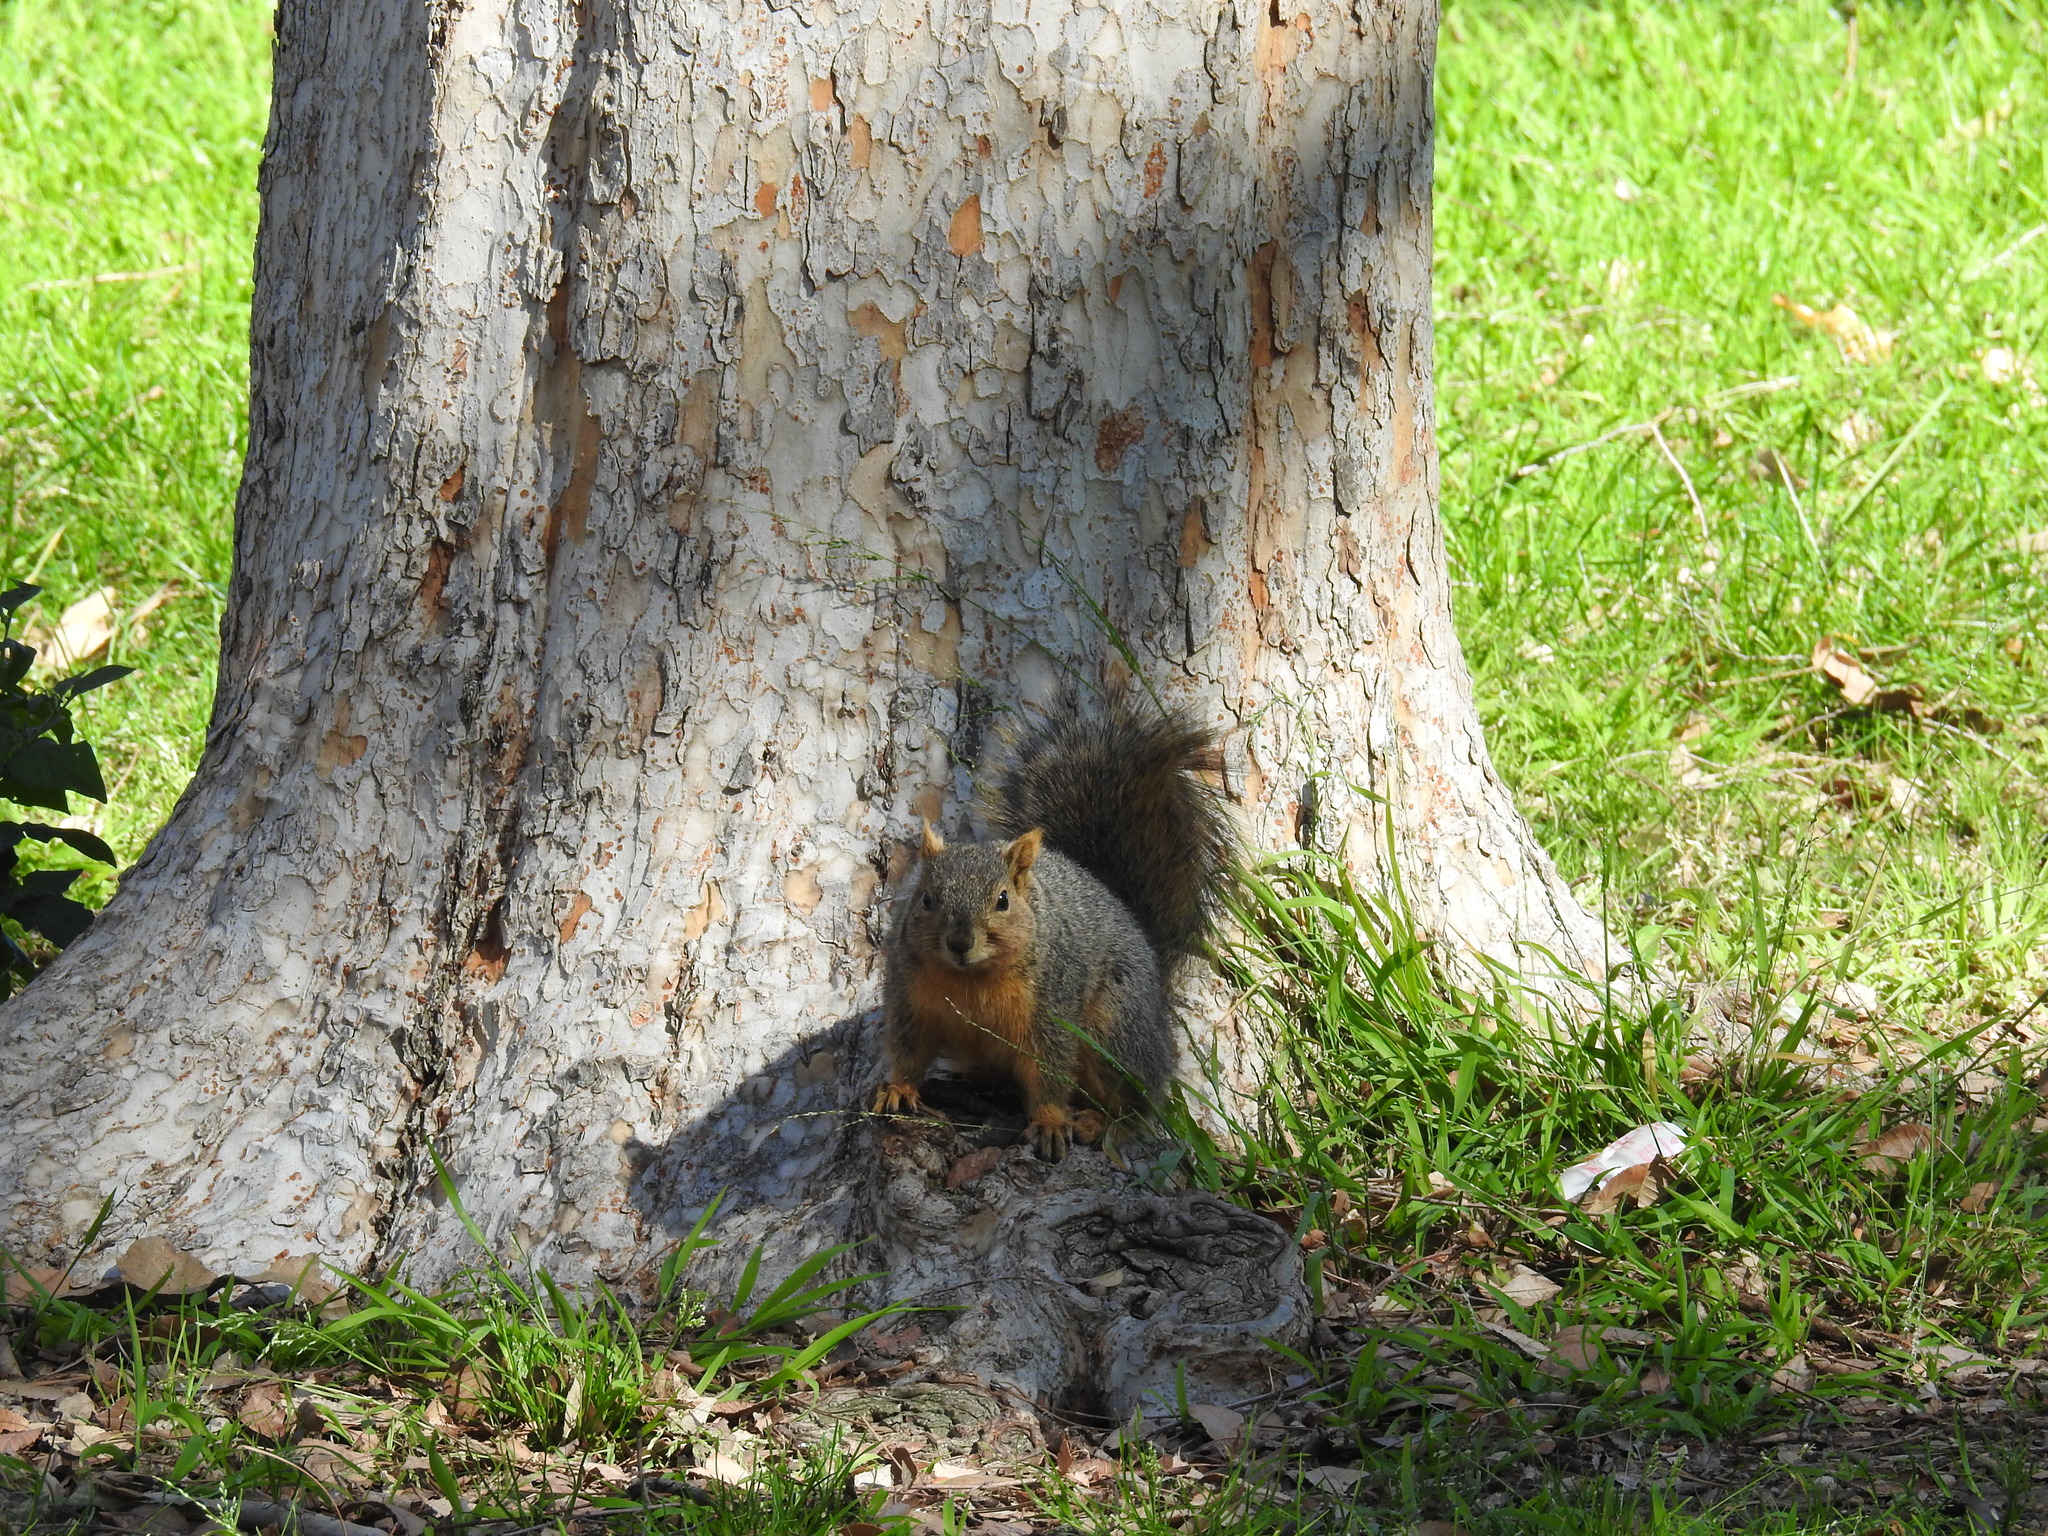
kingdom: Animalia
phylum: Chordata
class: Mammalia
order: Rodentia
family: Sciuridae
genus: Sciurus
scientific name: Sciurus niger
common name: Fox squirrel
